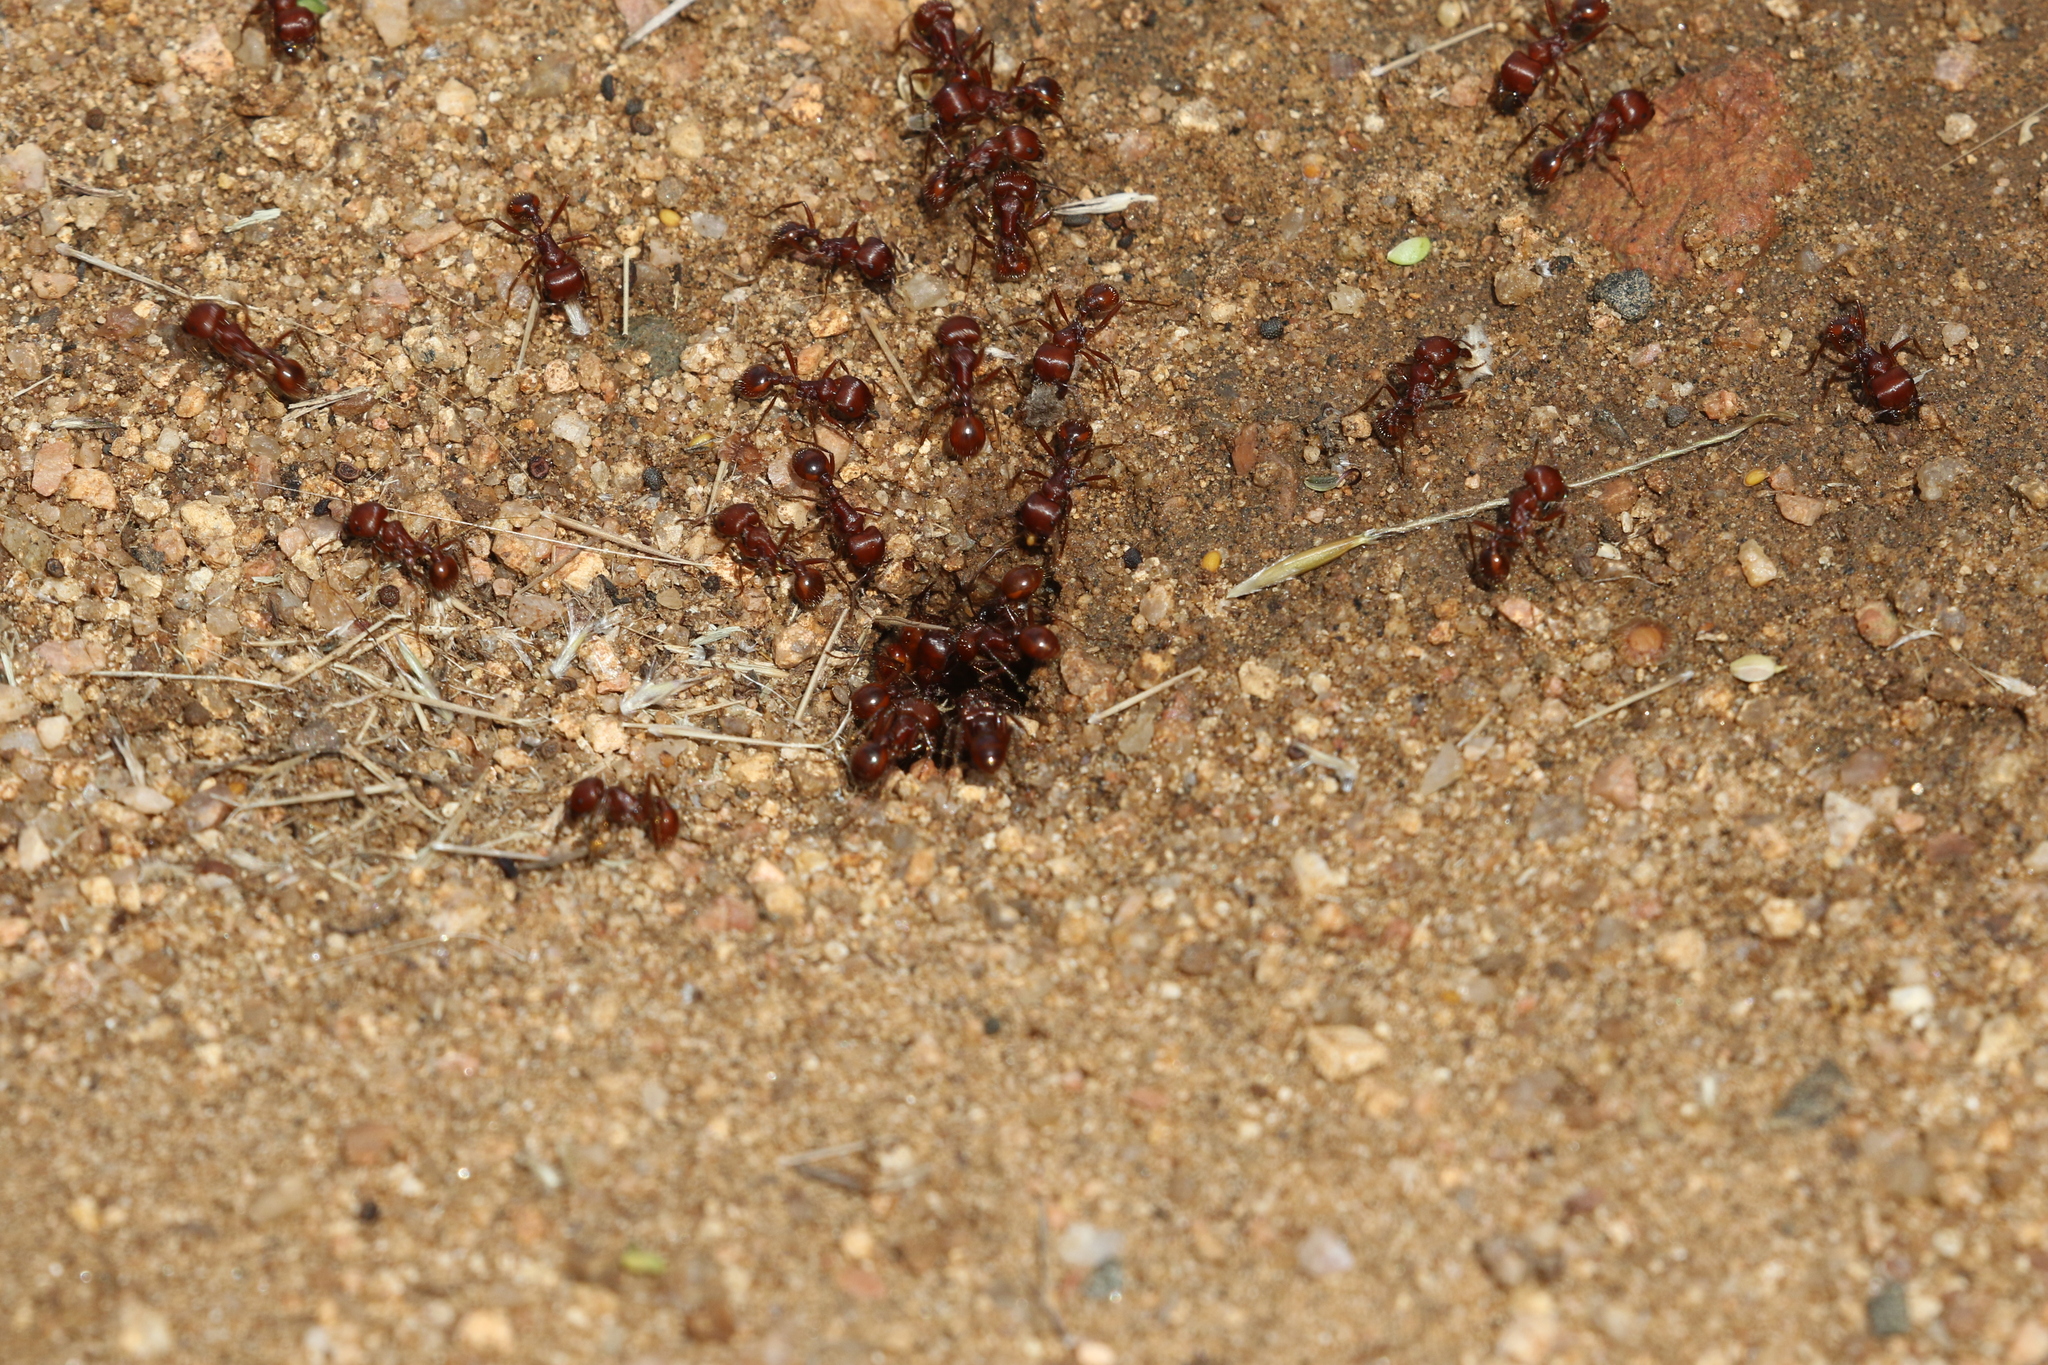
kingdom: Animalia
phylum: Arthropoda
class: Insecta
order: Hymenoptera
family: Formicidae
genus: Pogonomyrmex
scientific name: Pogonomyrmex barbatus
